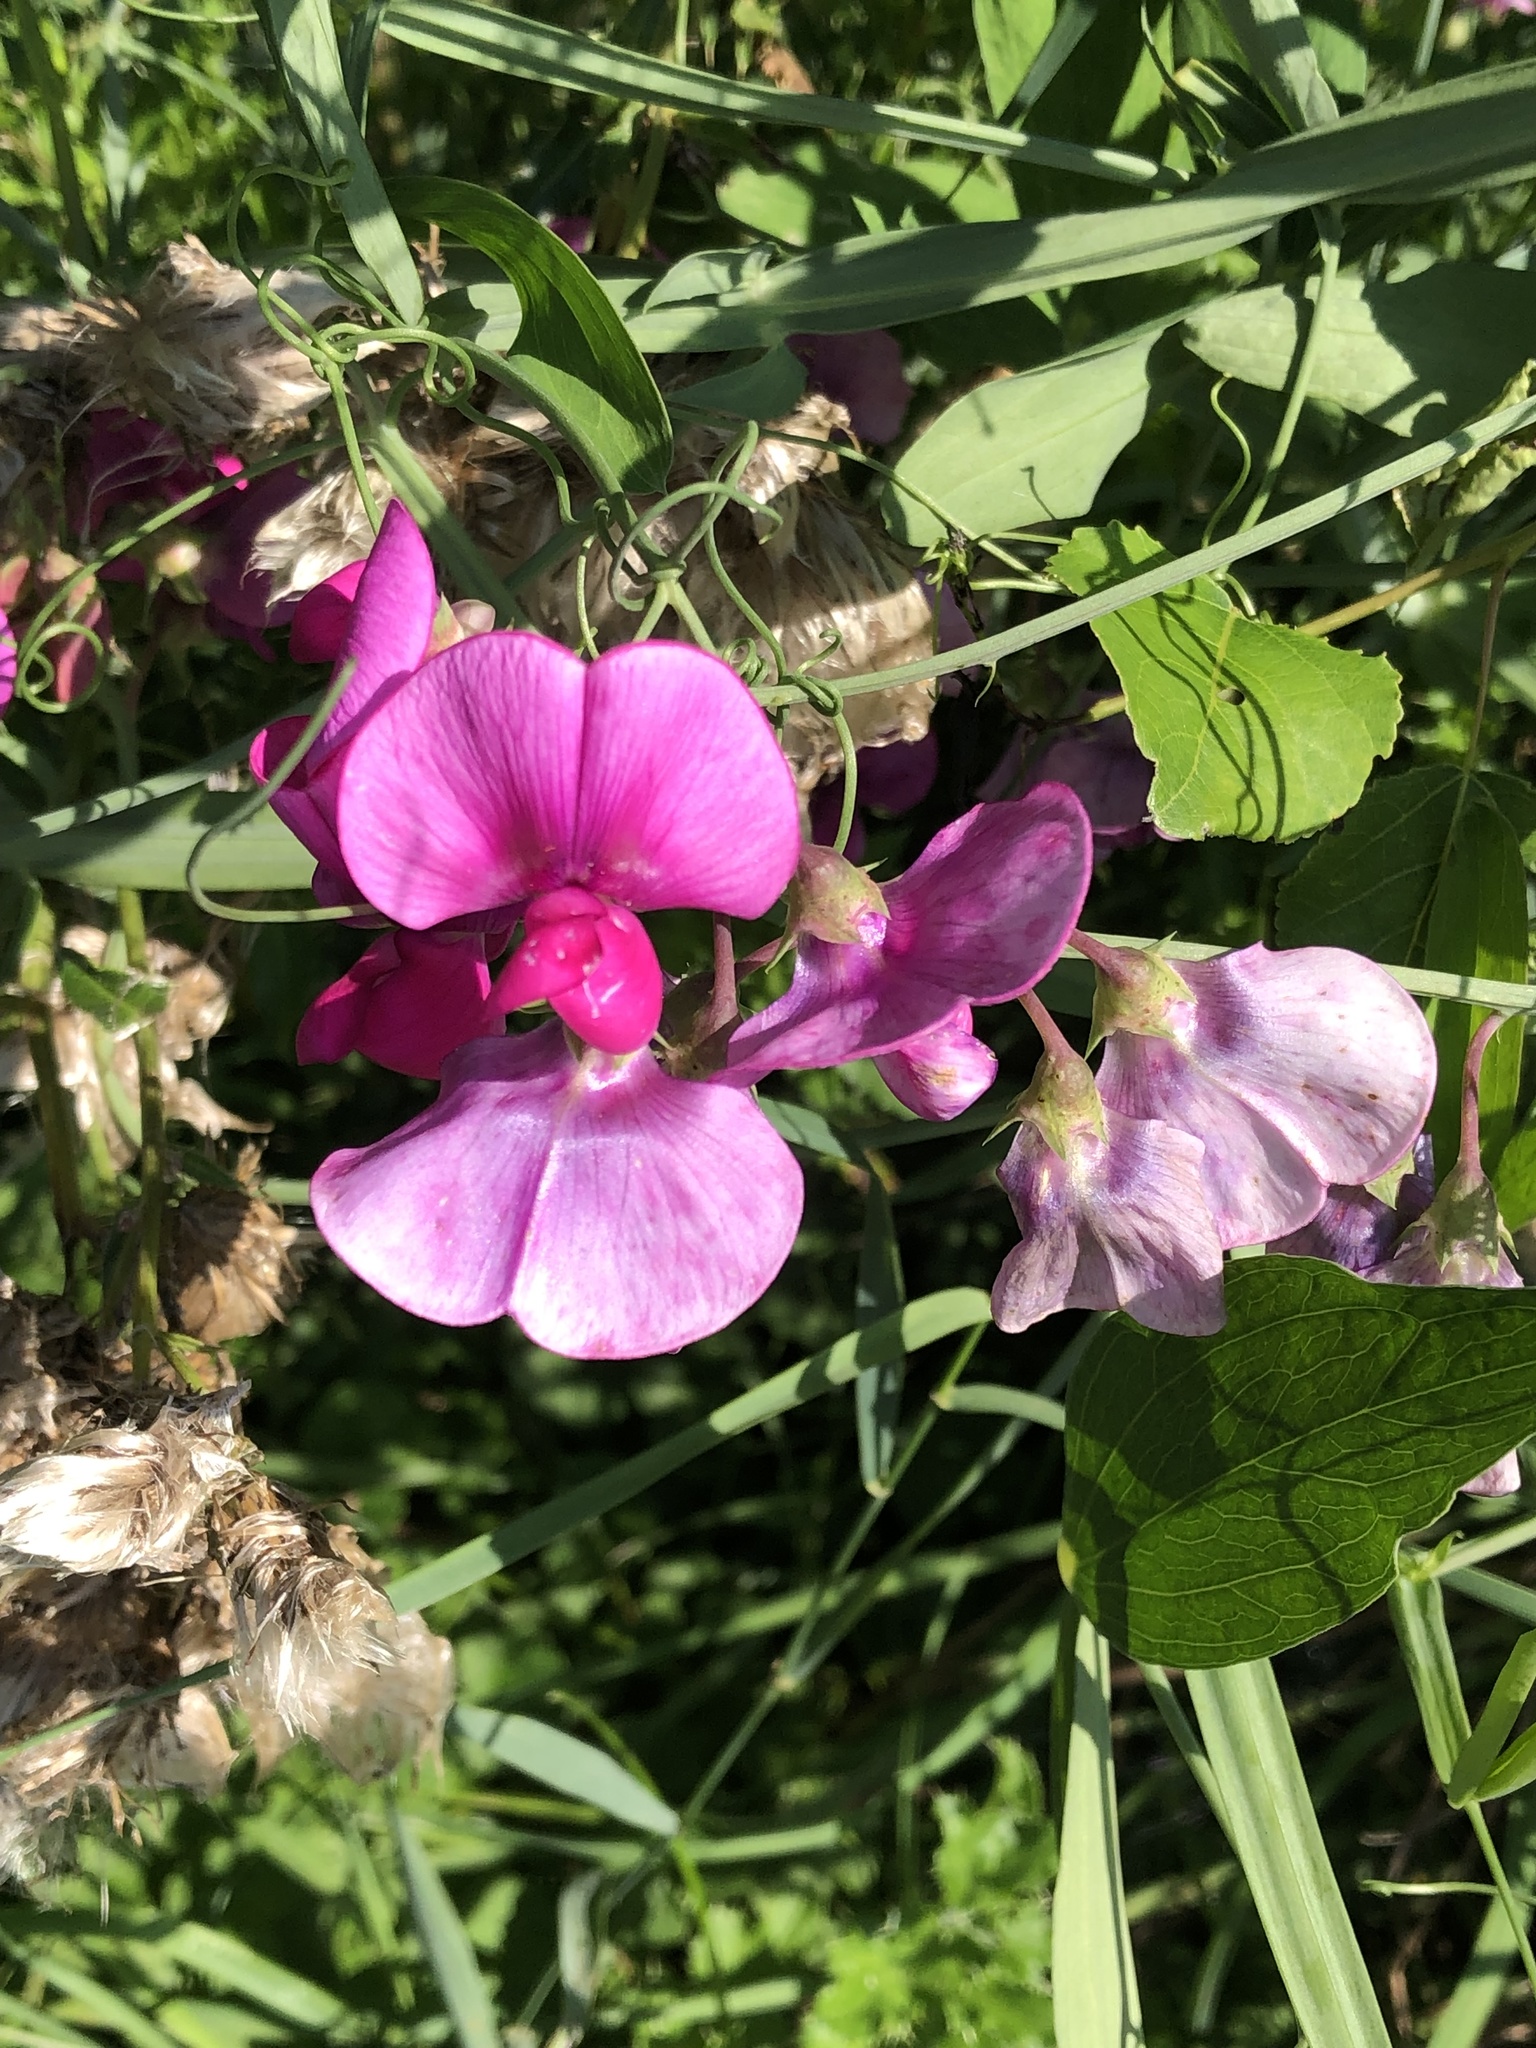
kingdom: Plantae
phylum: Tracheophyta
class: Magnoliopsida
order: Fabales
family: Fabaceae
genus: Lathyrus
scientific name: Lathyrus latifolius
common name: Perennial pea
